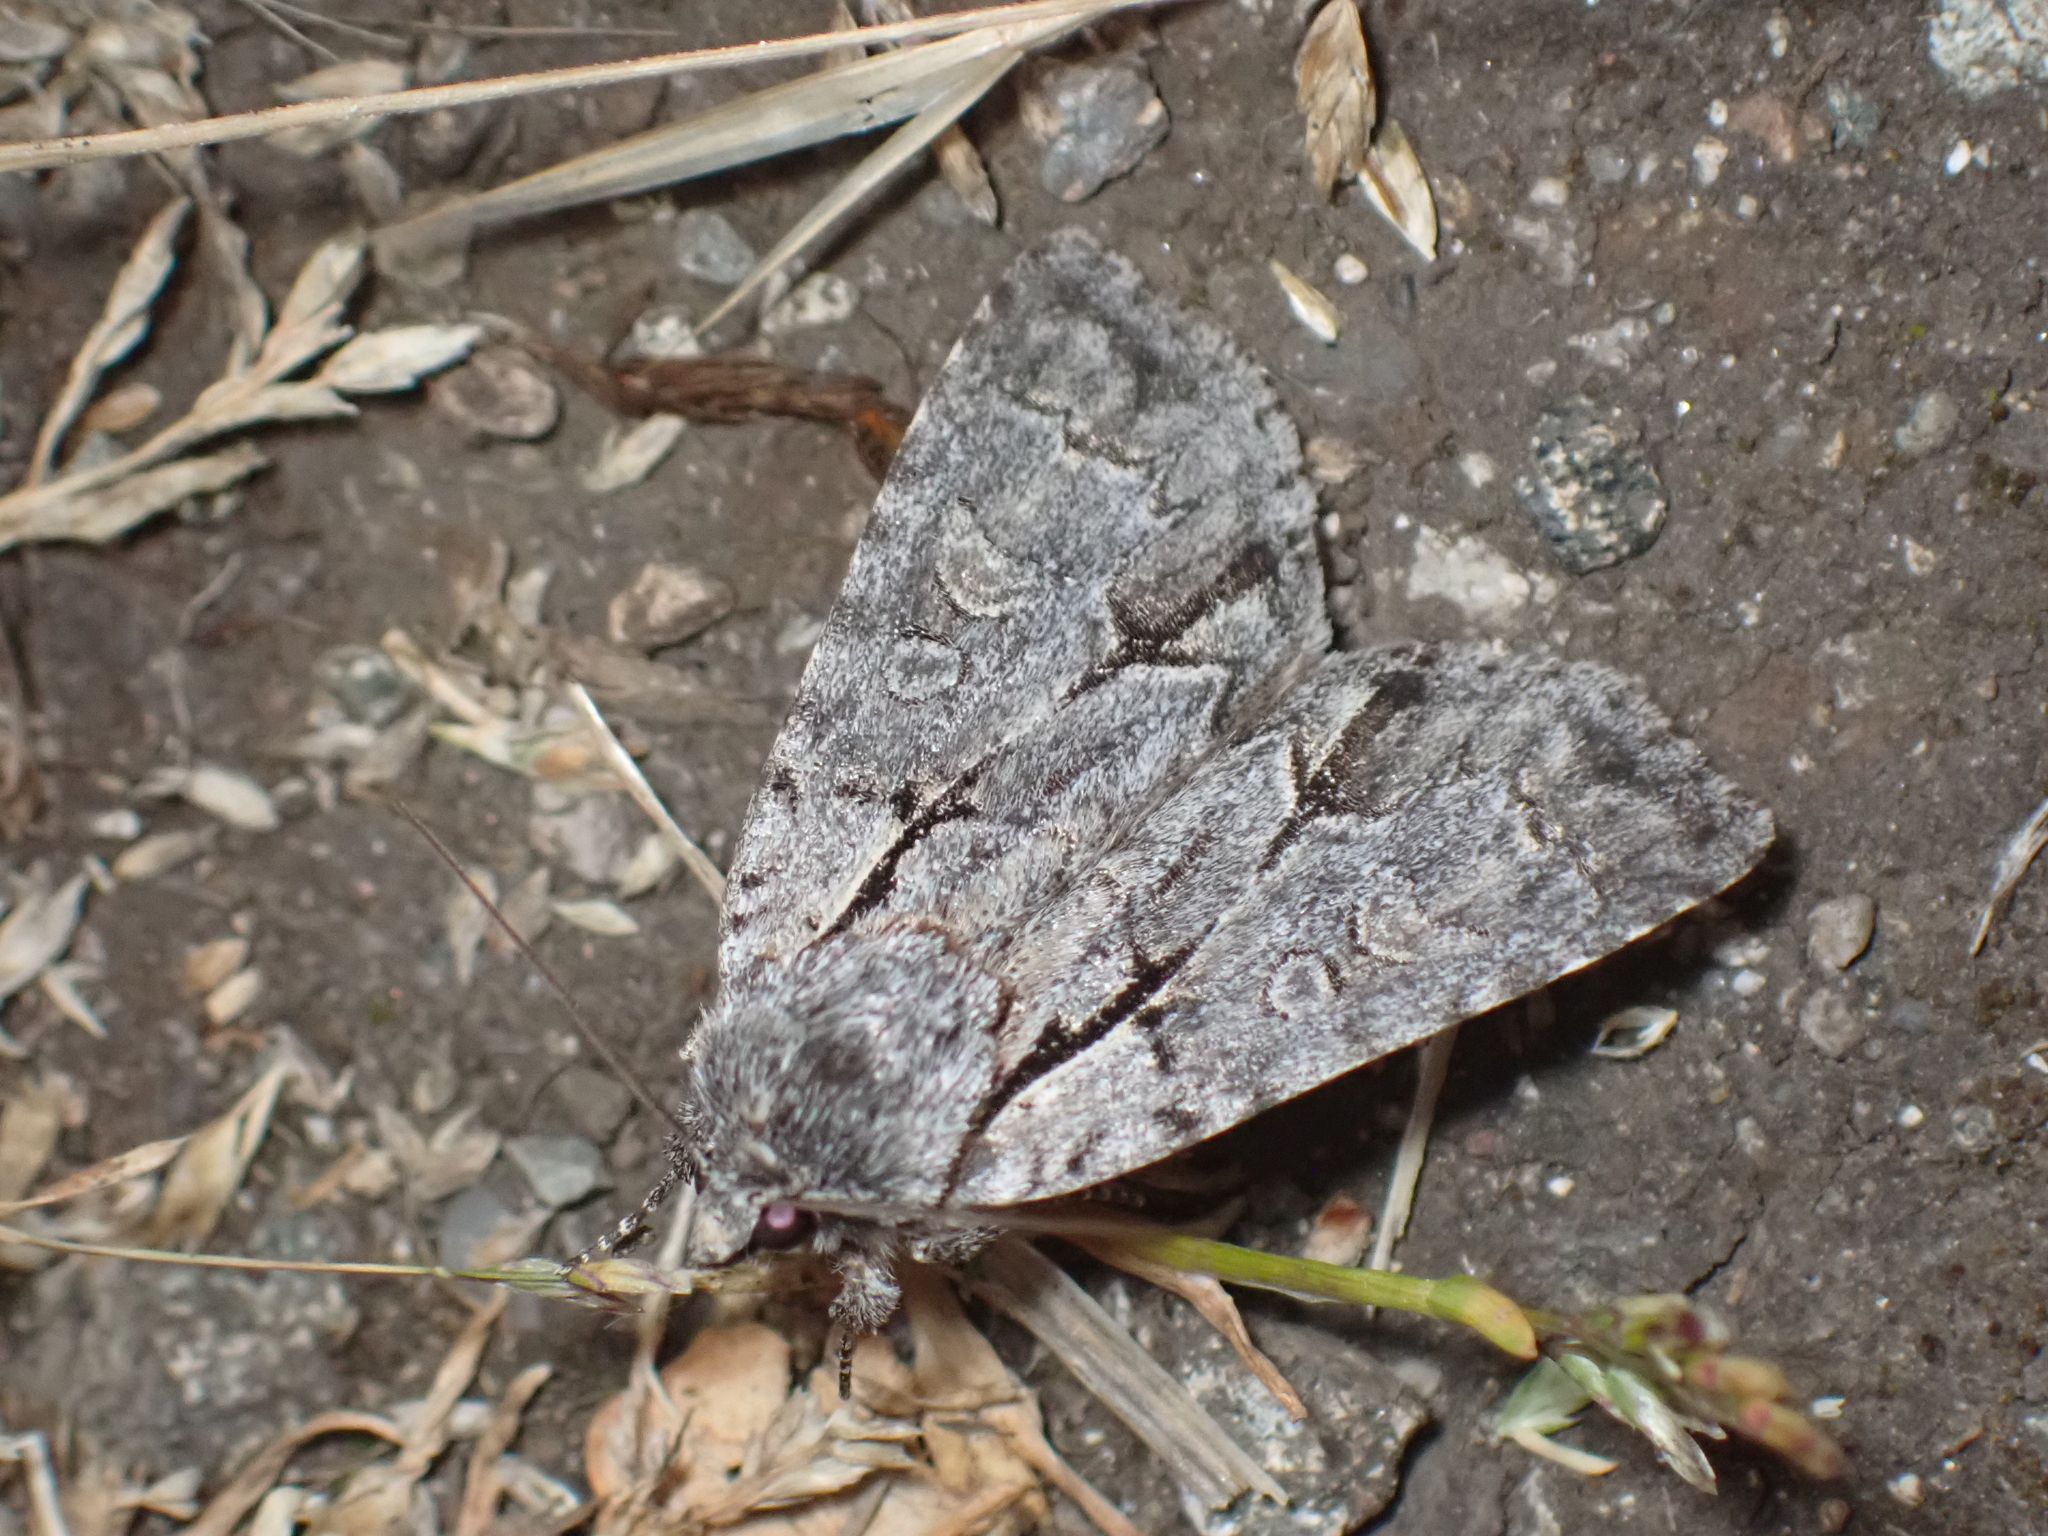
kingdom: Animalia
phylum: Arthropoda
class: Insecta
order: Lepidoptera
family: Noctuidae
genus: Acronicta
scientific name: Acronicta grisea
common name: Gray dagger
